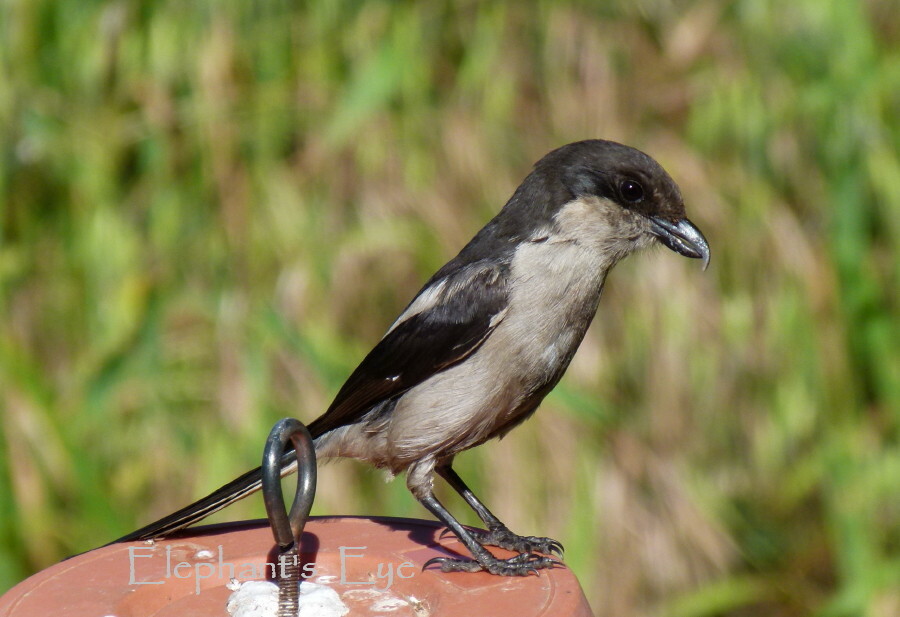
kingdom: Animalia
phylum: Chordata
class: Aves
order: Passeriformes
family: Laniidae
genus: Lanius
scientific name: Lanius collaris
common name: Southern fiscal
